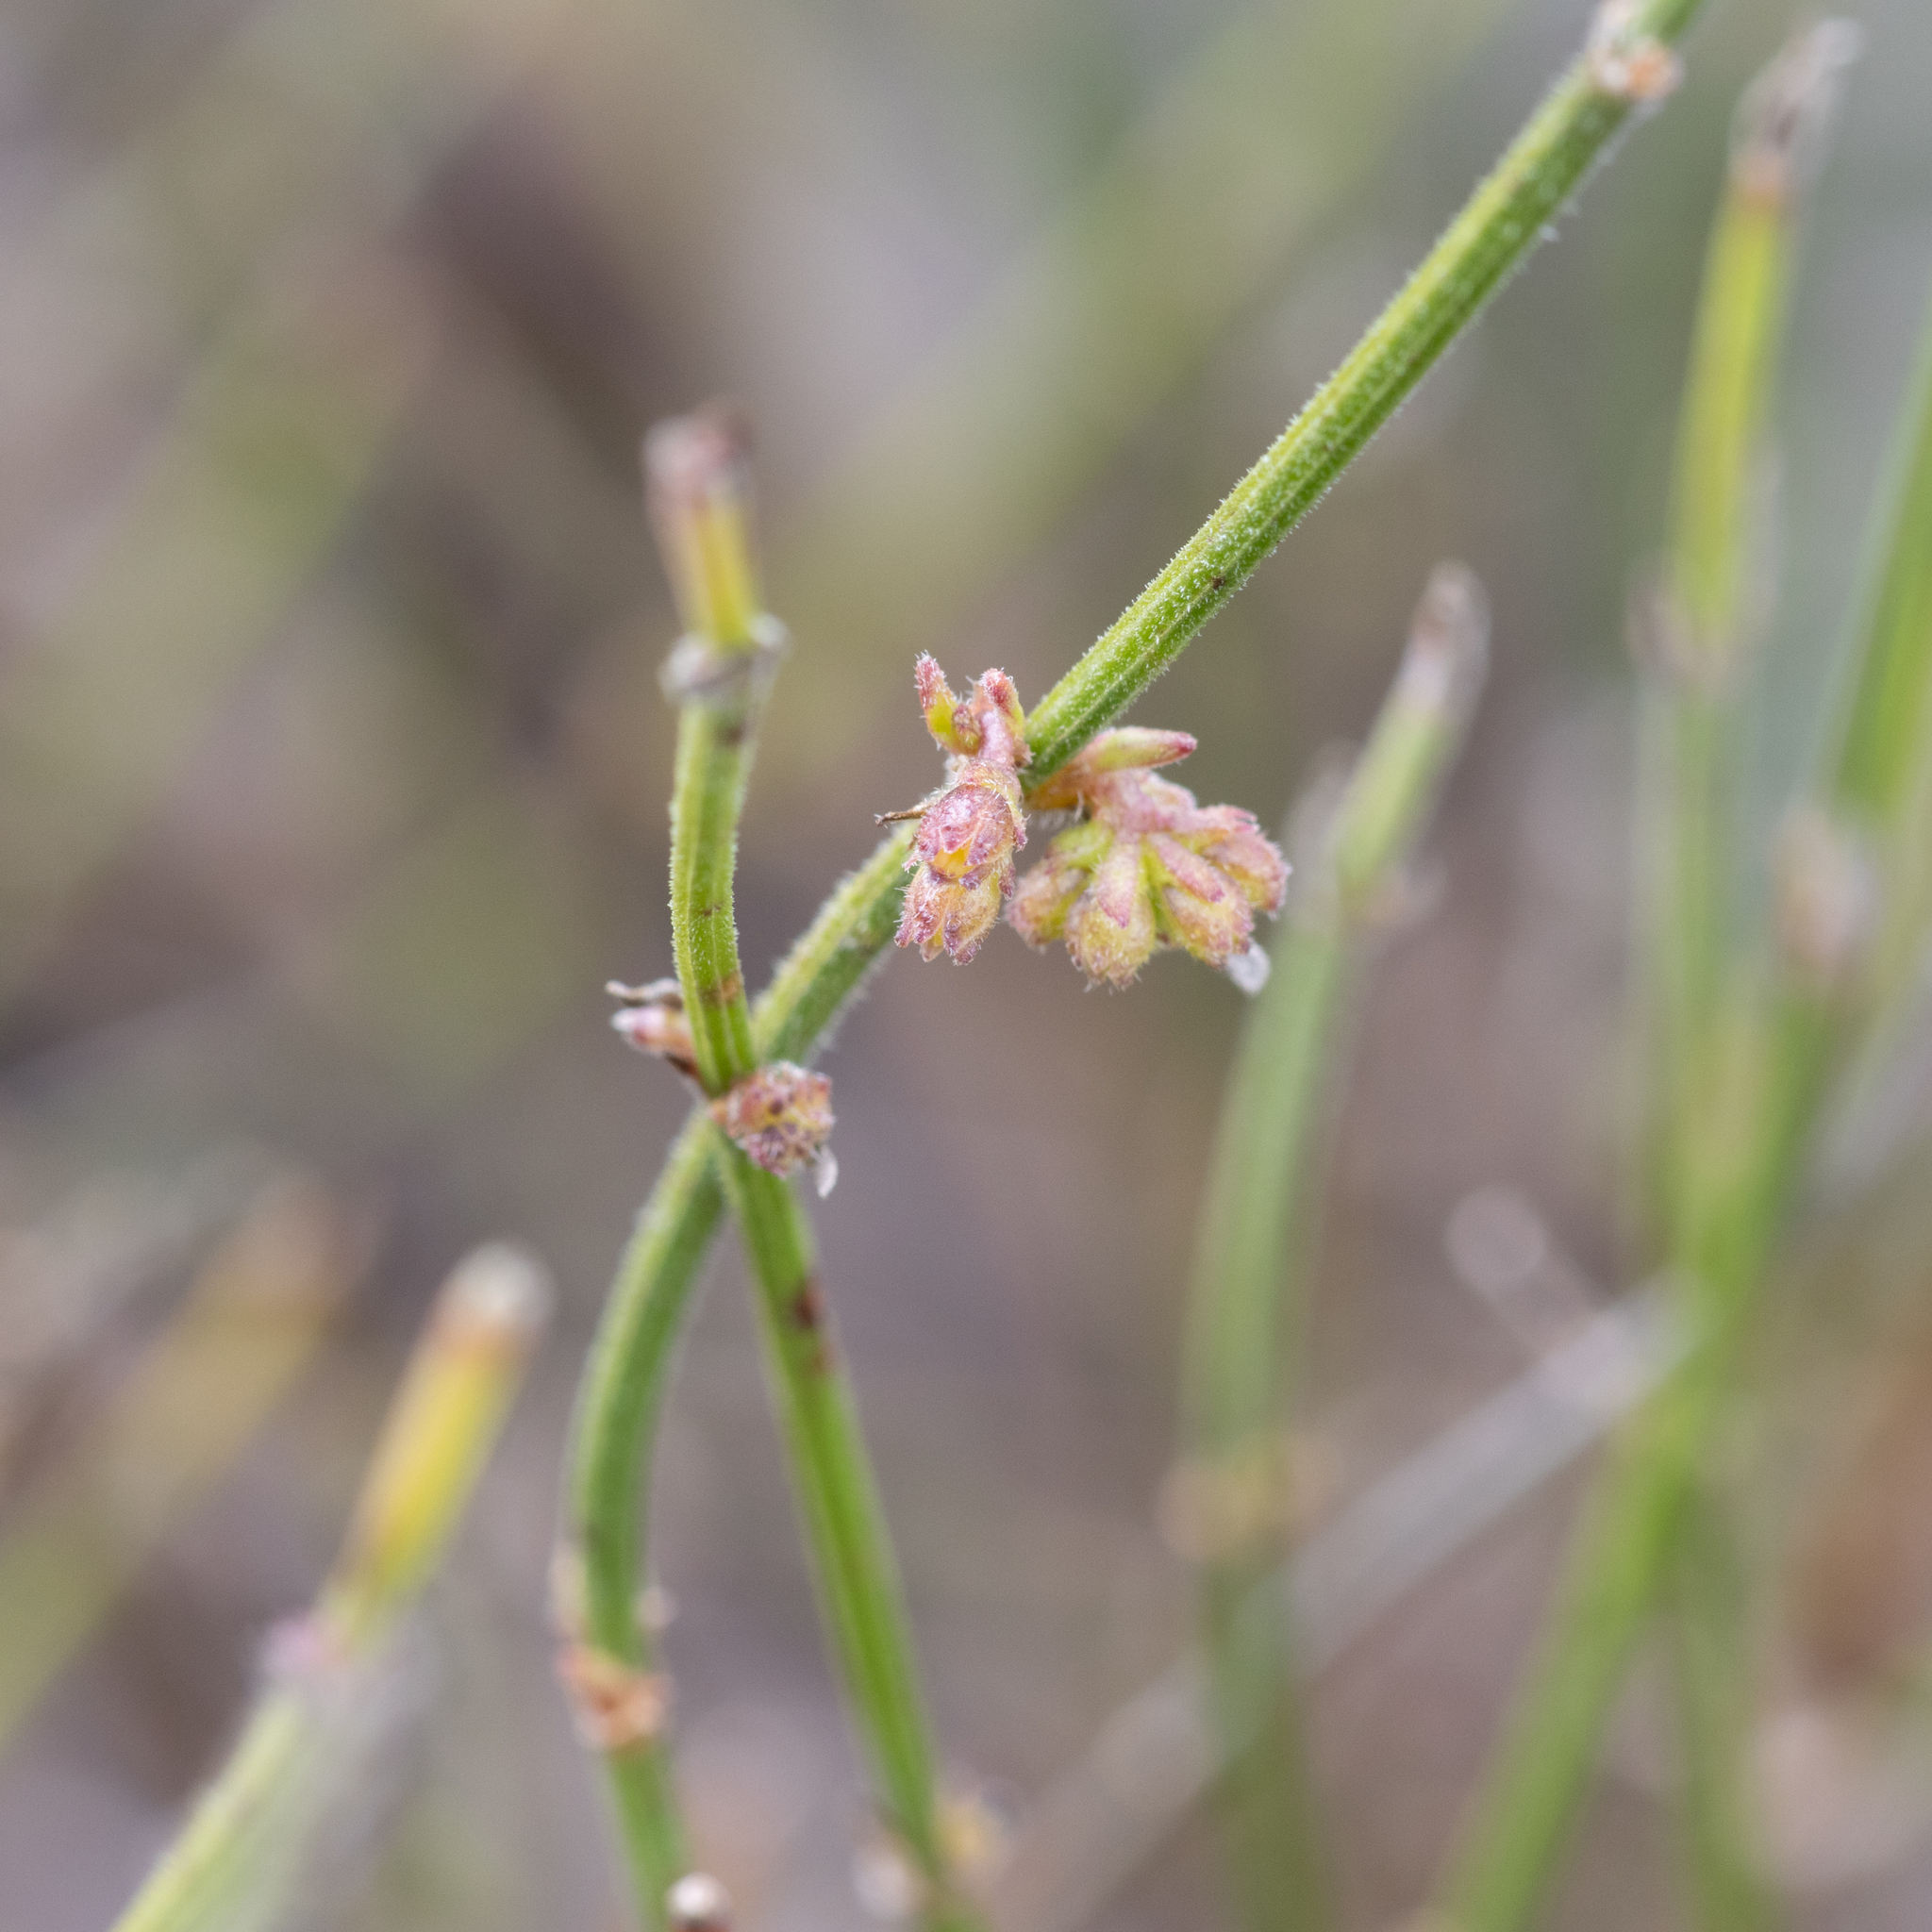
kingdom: Plantae
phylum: Tracheophyta
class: Magnoliopsida
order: Gentianales
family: Rubiaceae
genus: Opercularia
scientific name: Opercularia turpis
